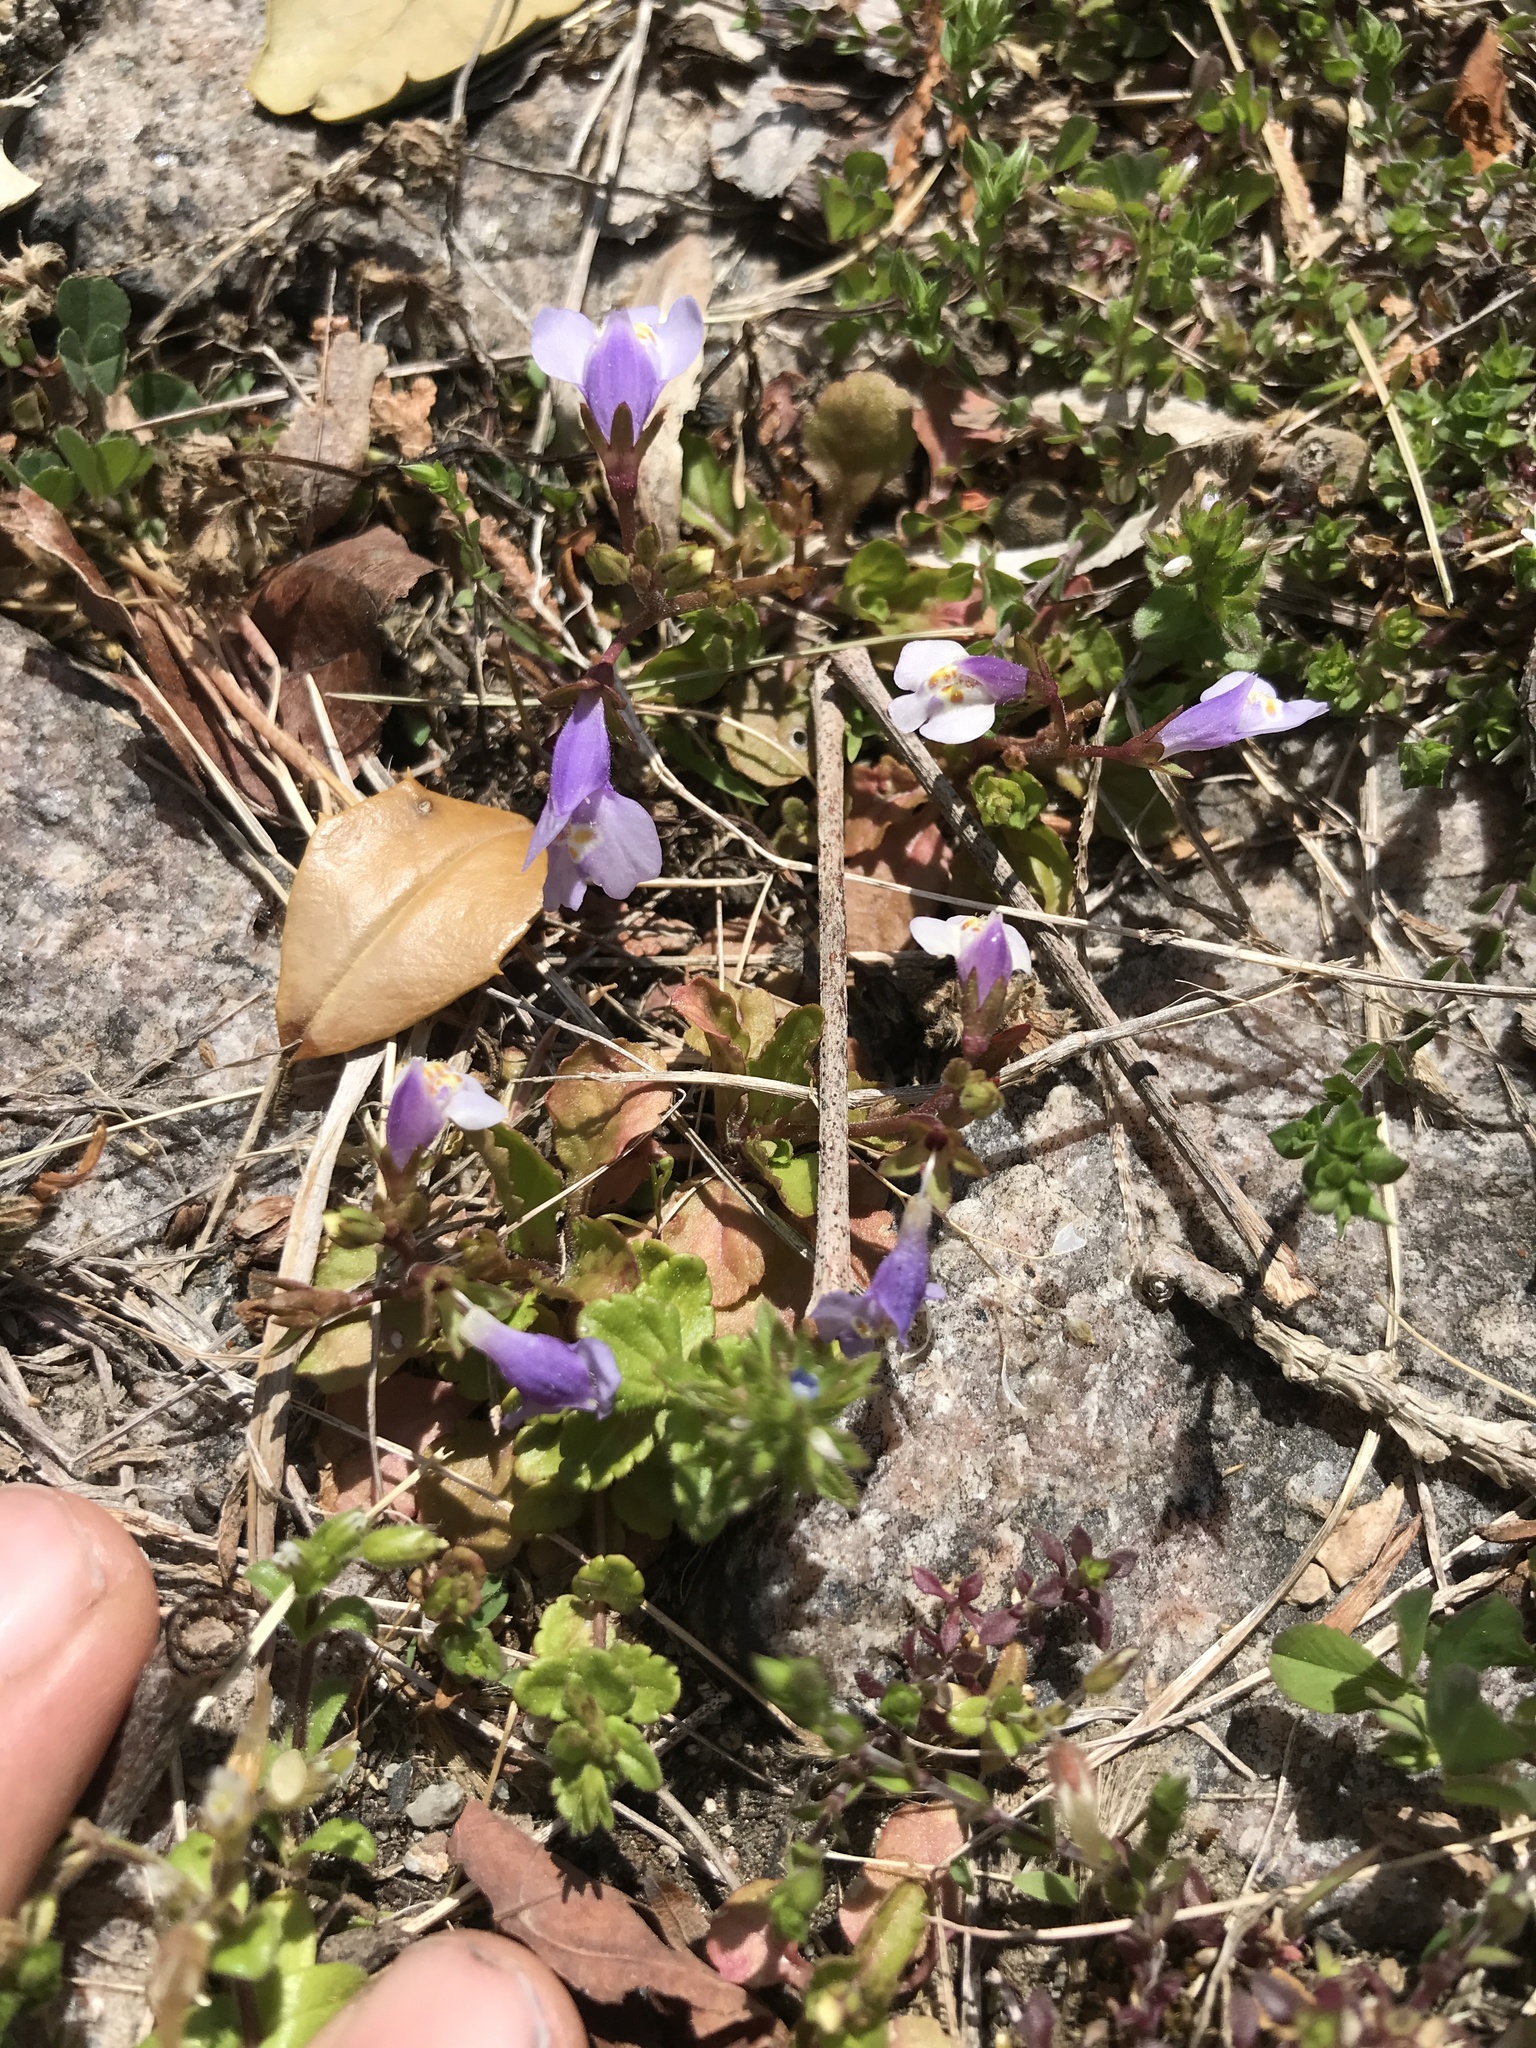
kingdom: Plantae
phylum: Tracheophyta
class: Magnoliopsida
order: Lamiales
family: Mazaceae
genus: Mazus
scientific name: Mazus pumilus
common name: Japanese mazus
